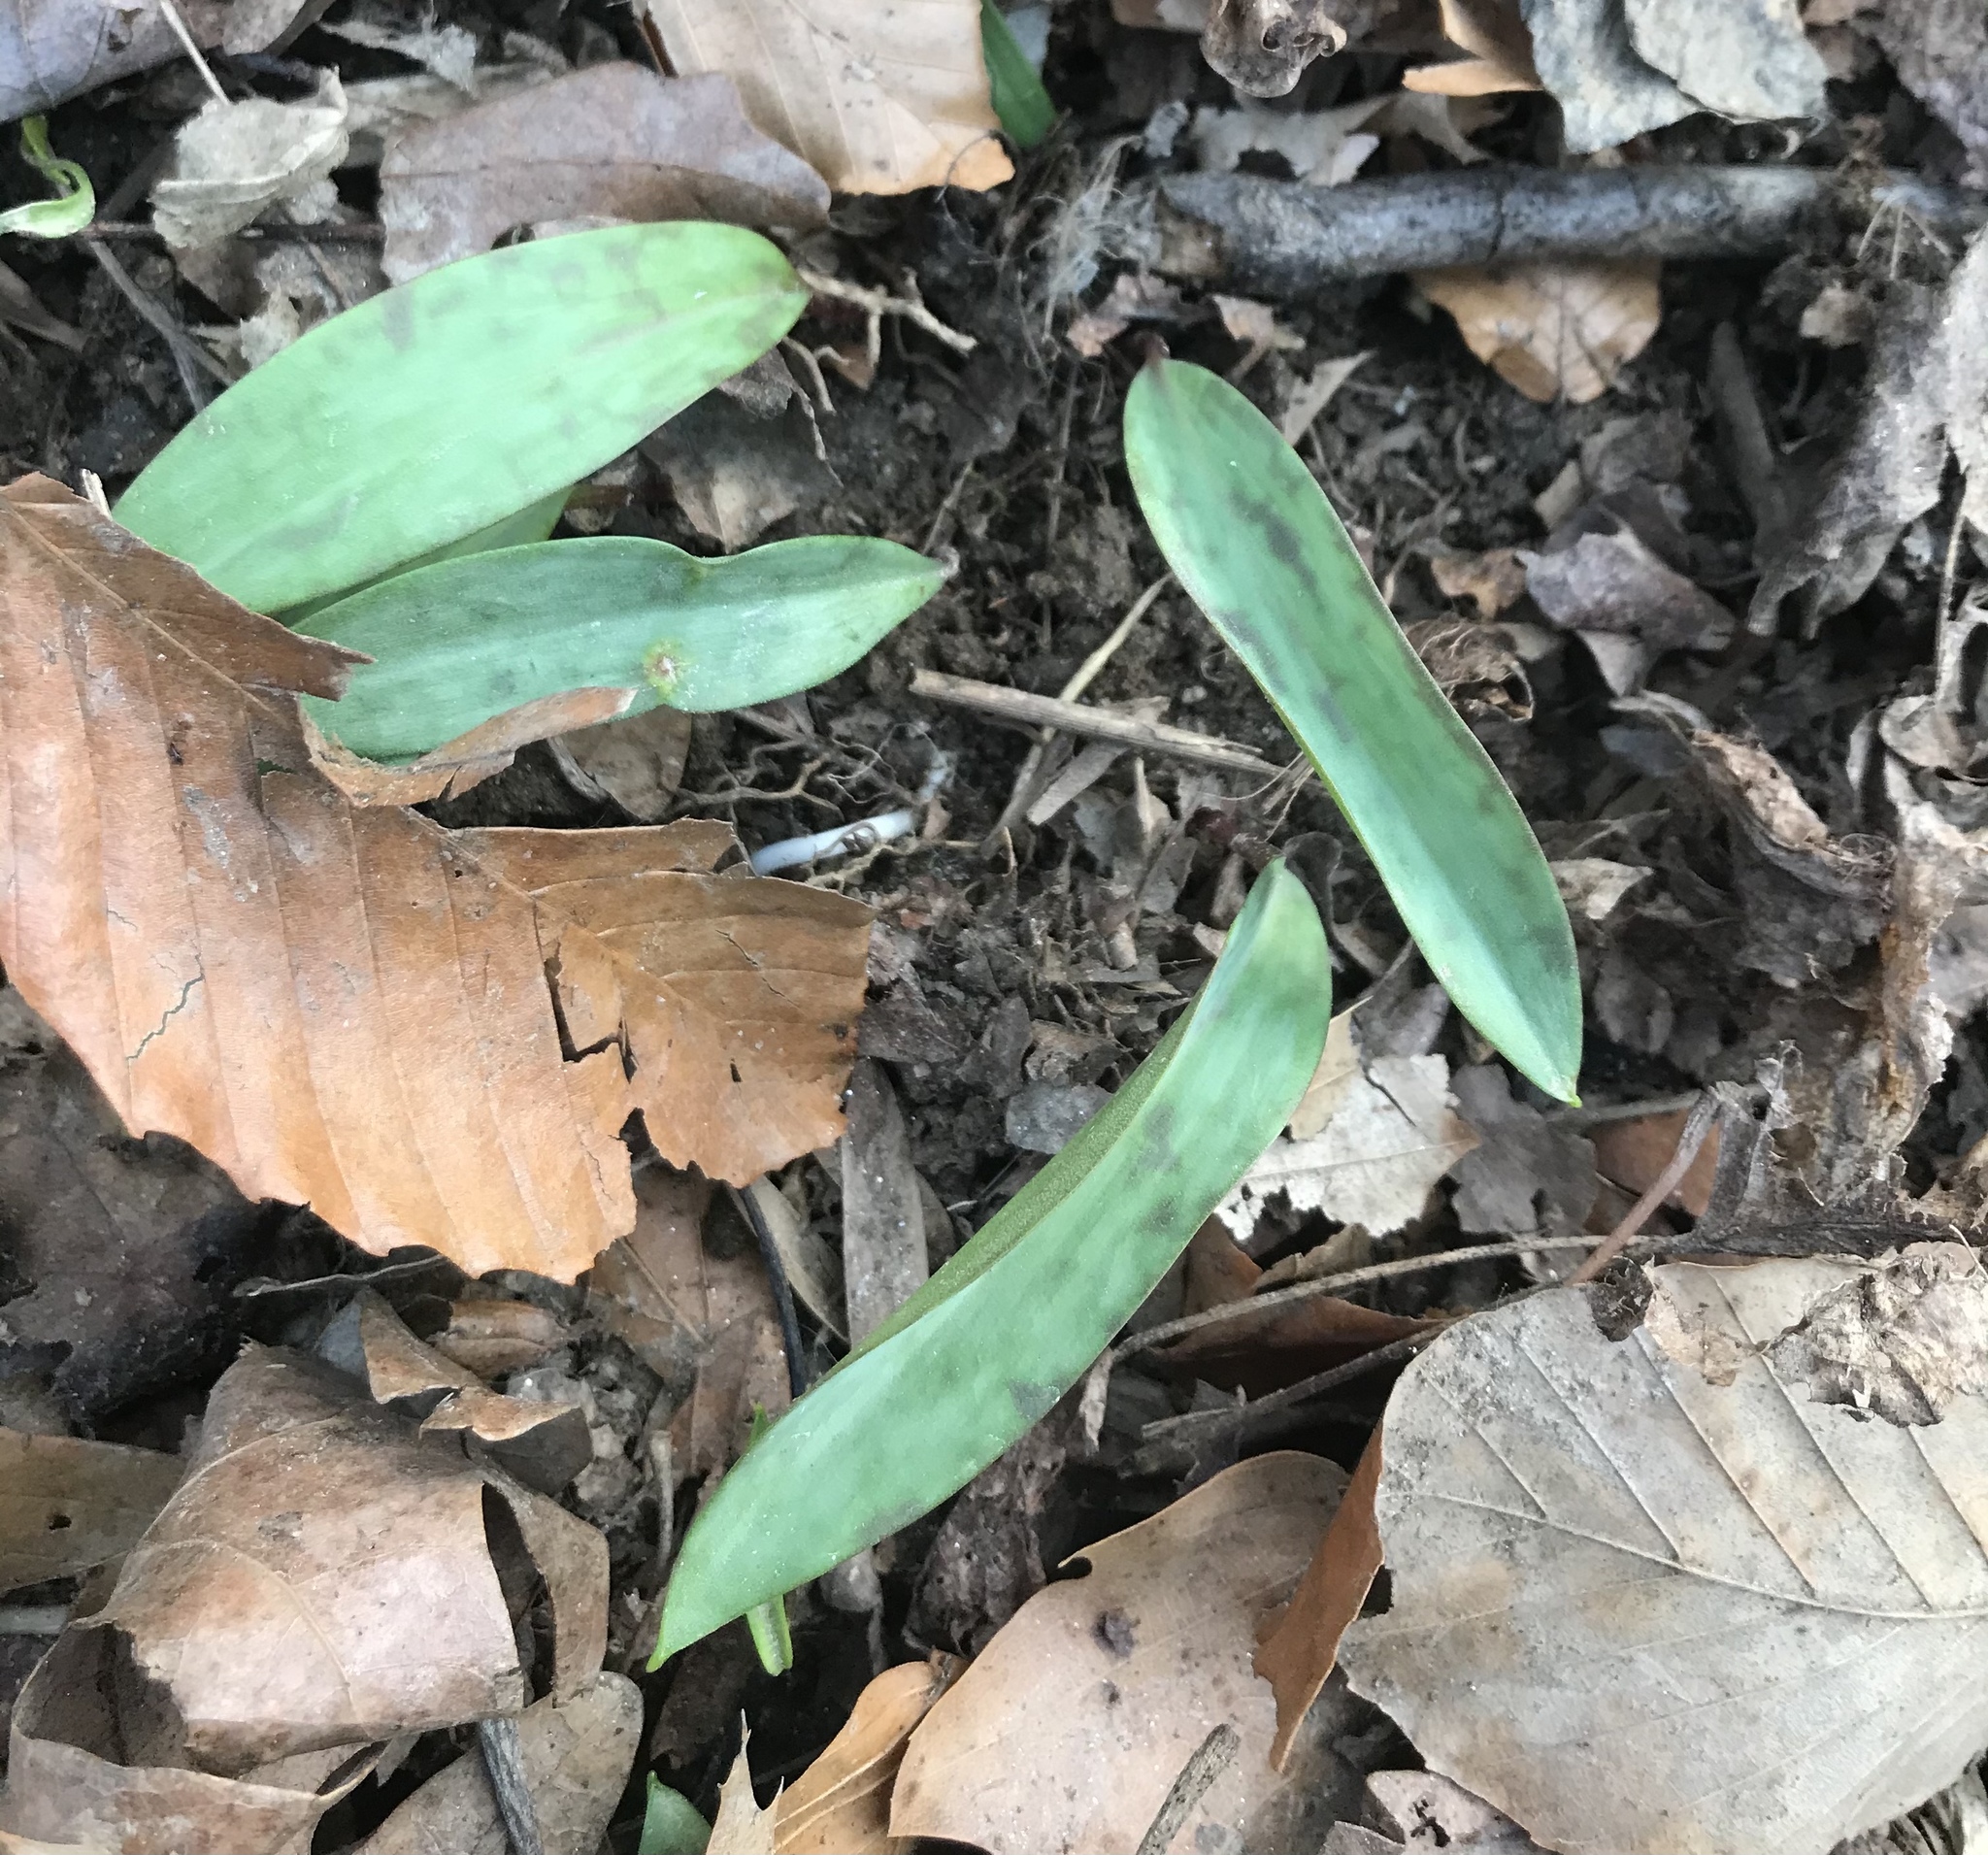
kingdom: Plantae
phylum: Tracheophyta
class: Liliopsida
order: Liliales
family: Liliaceae
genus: Erythronium
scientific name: Erythronium americanum
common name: Yellow adder's-tongue
